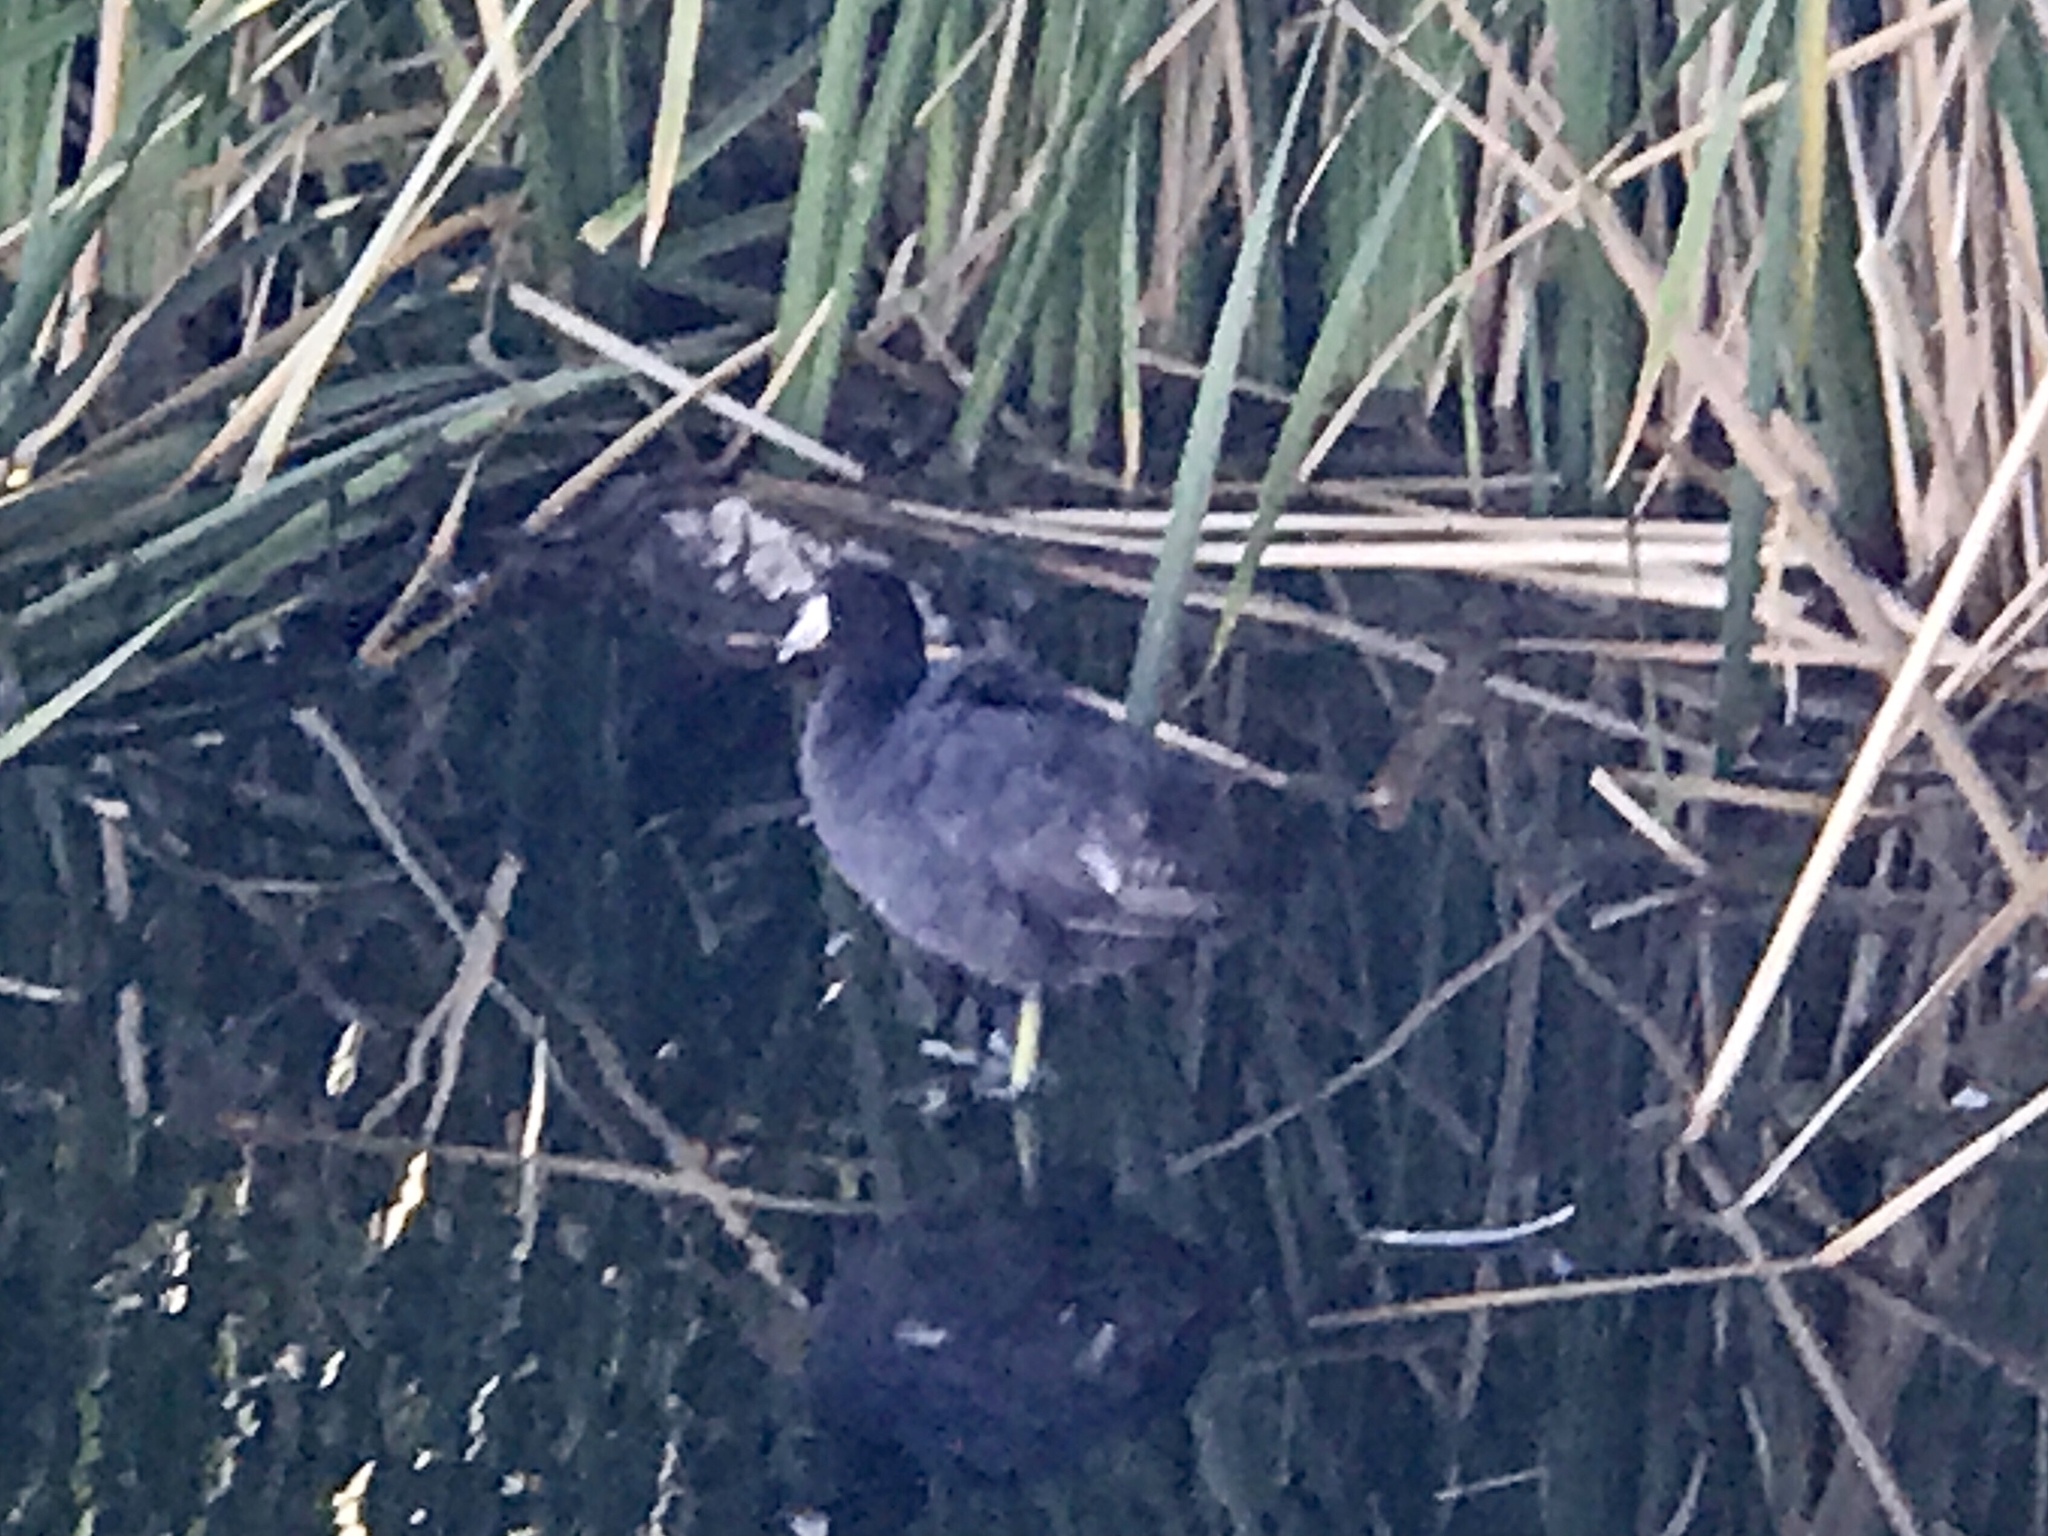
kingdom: Animalia
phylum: Chordata
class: Aves
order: Gruiformes
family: Rallidae
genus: Fulica
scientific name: Fulica americana
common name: American coot
